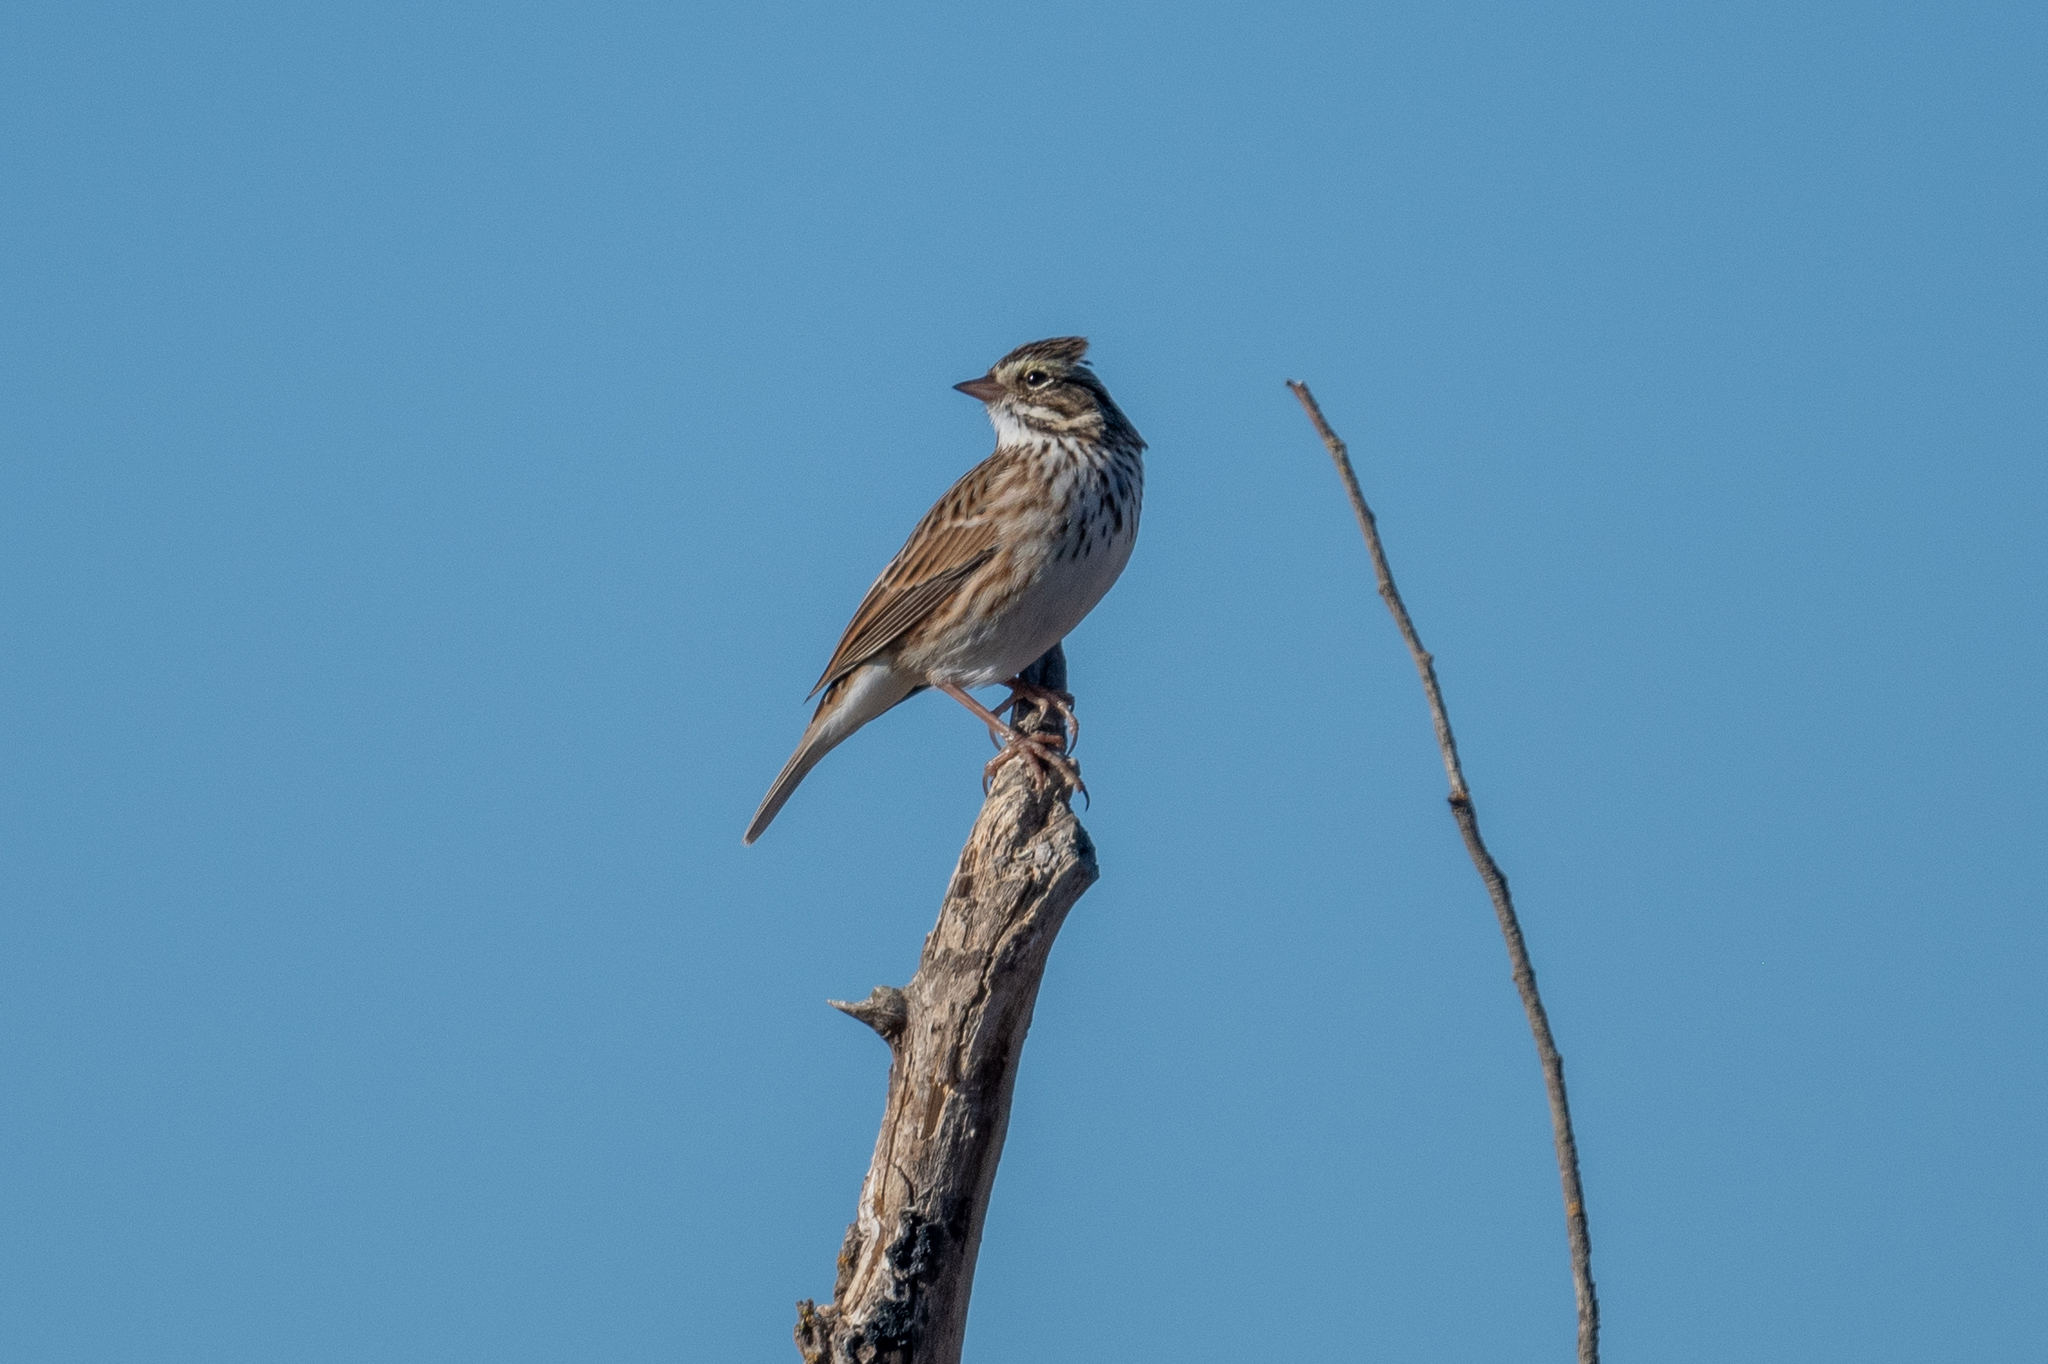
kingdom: Animalia
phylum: Chordata
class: Aves
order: Passeriformes
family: Passerellidae
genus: Passerculus
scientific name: Passerculus sandwichensis
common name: Savannah sparrow
